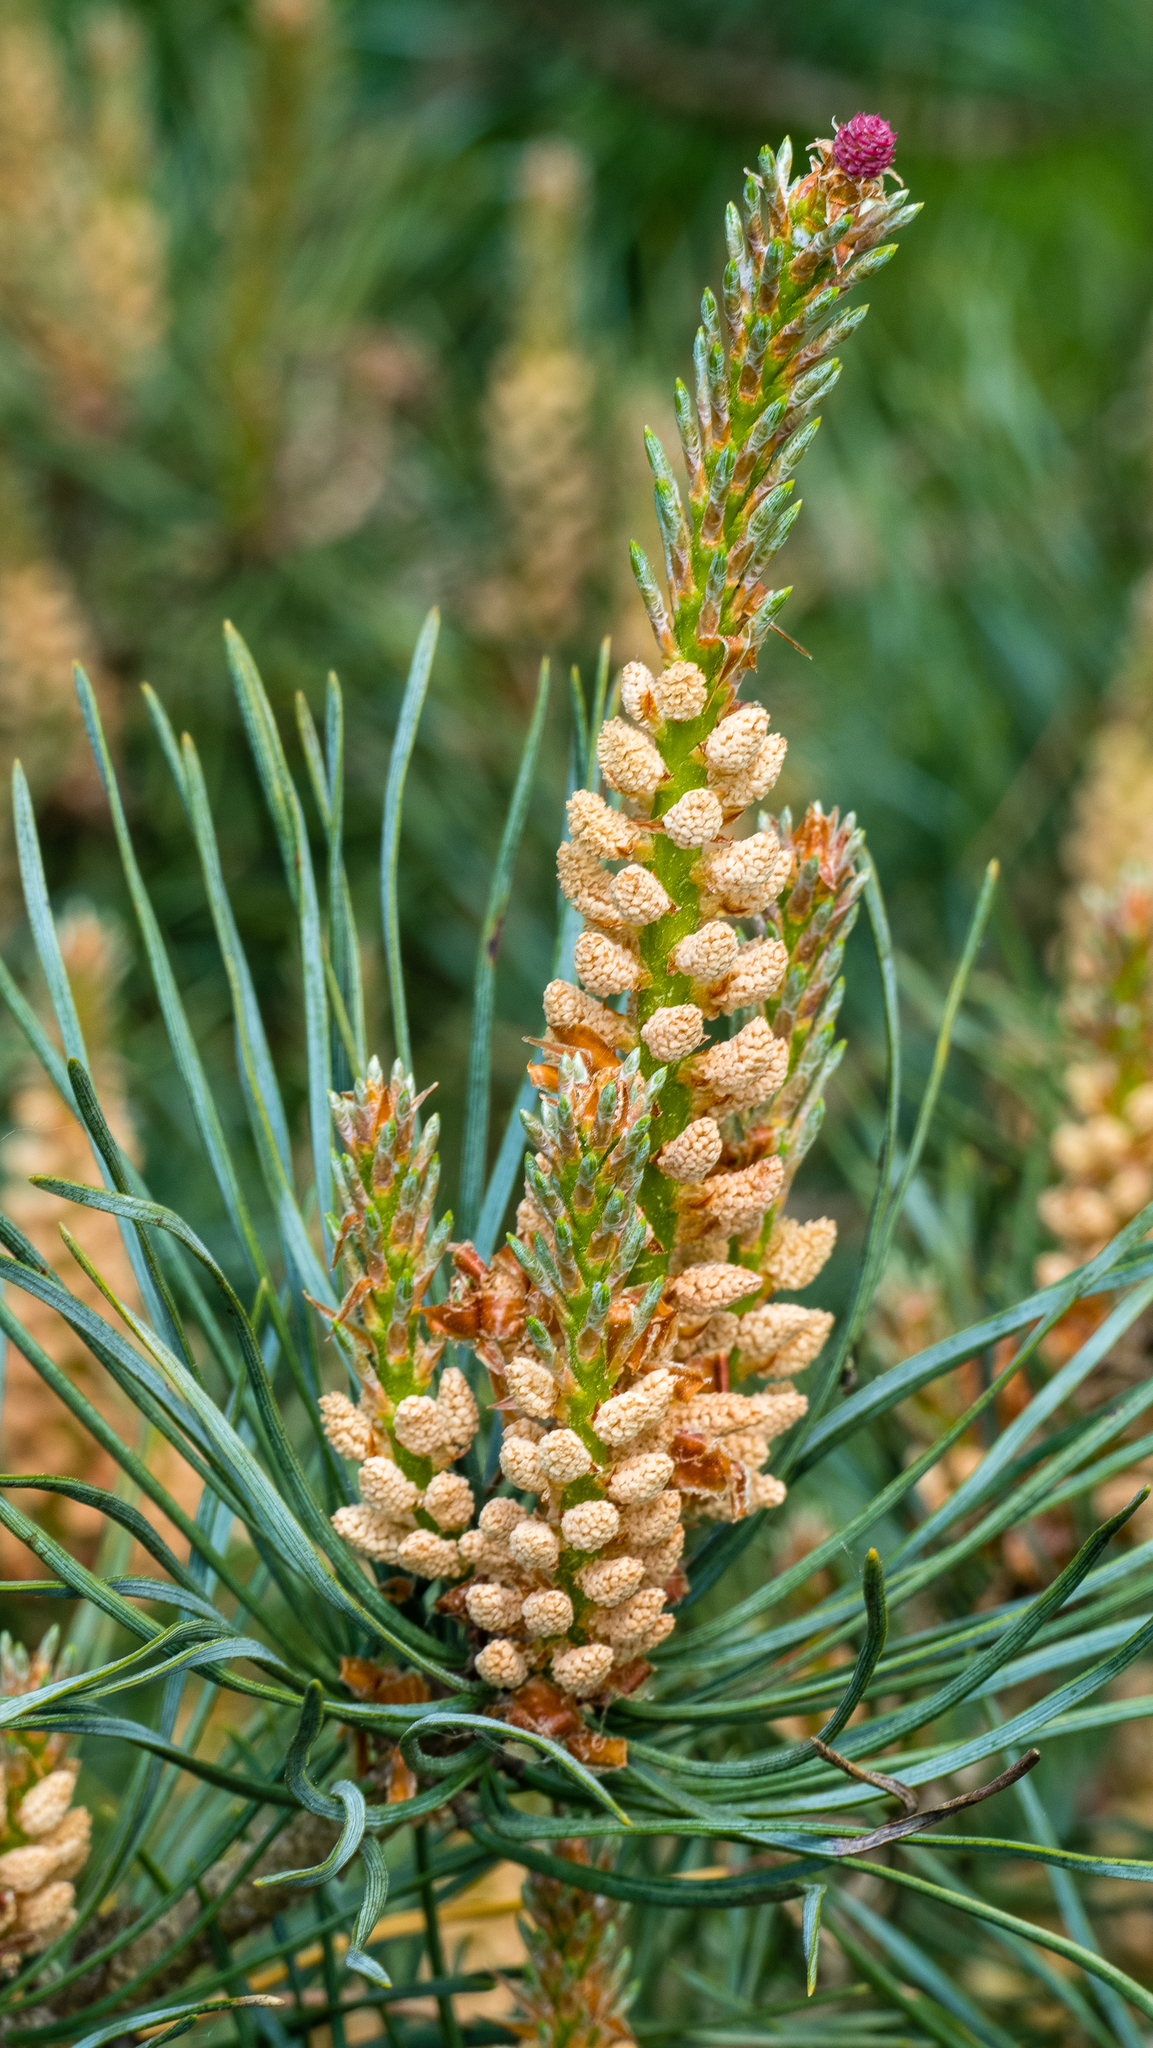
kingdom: Plantae
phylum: Tracheophyta
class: Pinopsida
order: Pinales
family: Pinaceae
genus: Pinus
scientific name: Pinus sylvestris
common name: Scots pine
